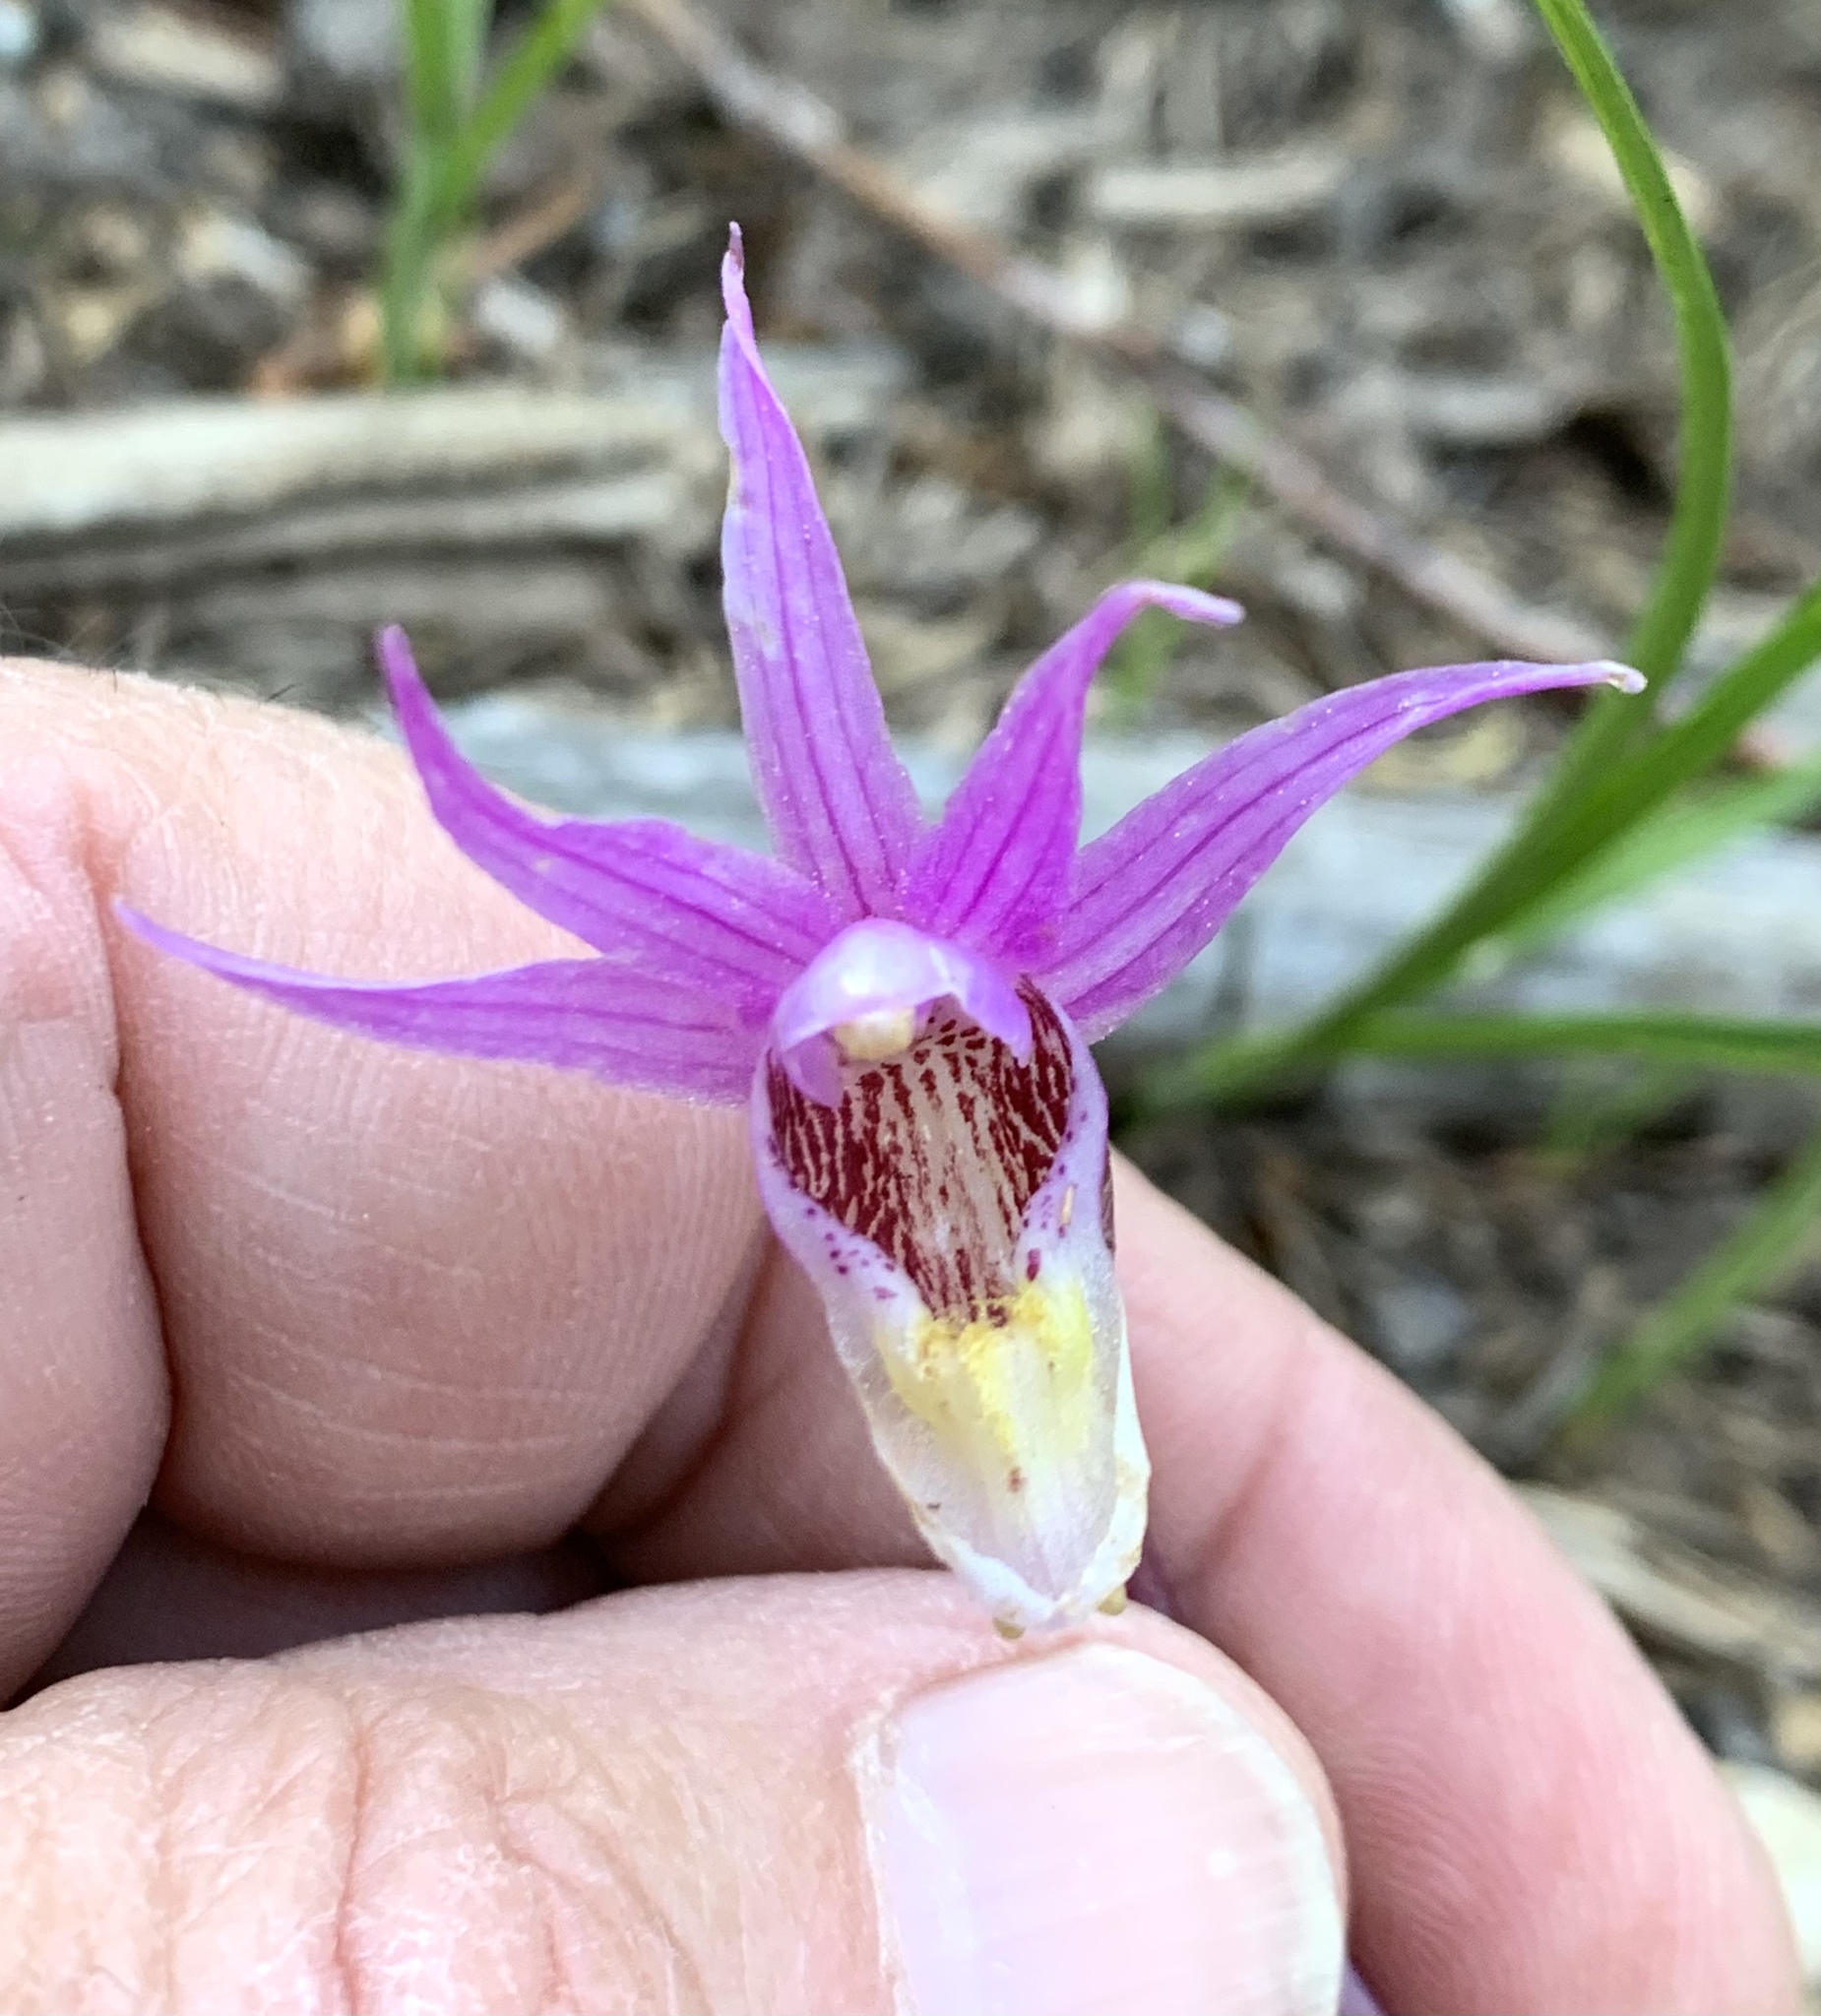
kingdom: Plantae
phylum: Tracheophyta
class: Liliopsida
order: Asparagales
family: Orchidaceae
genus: Calypso
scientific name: Calypso bulbosa
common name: Calypso
